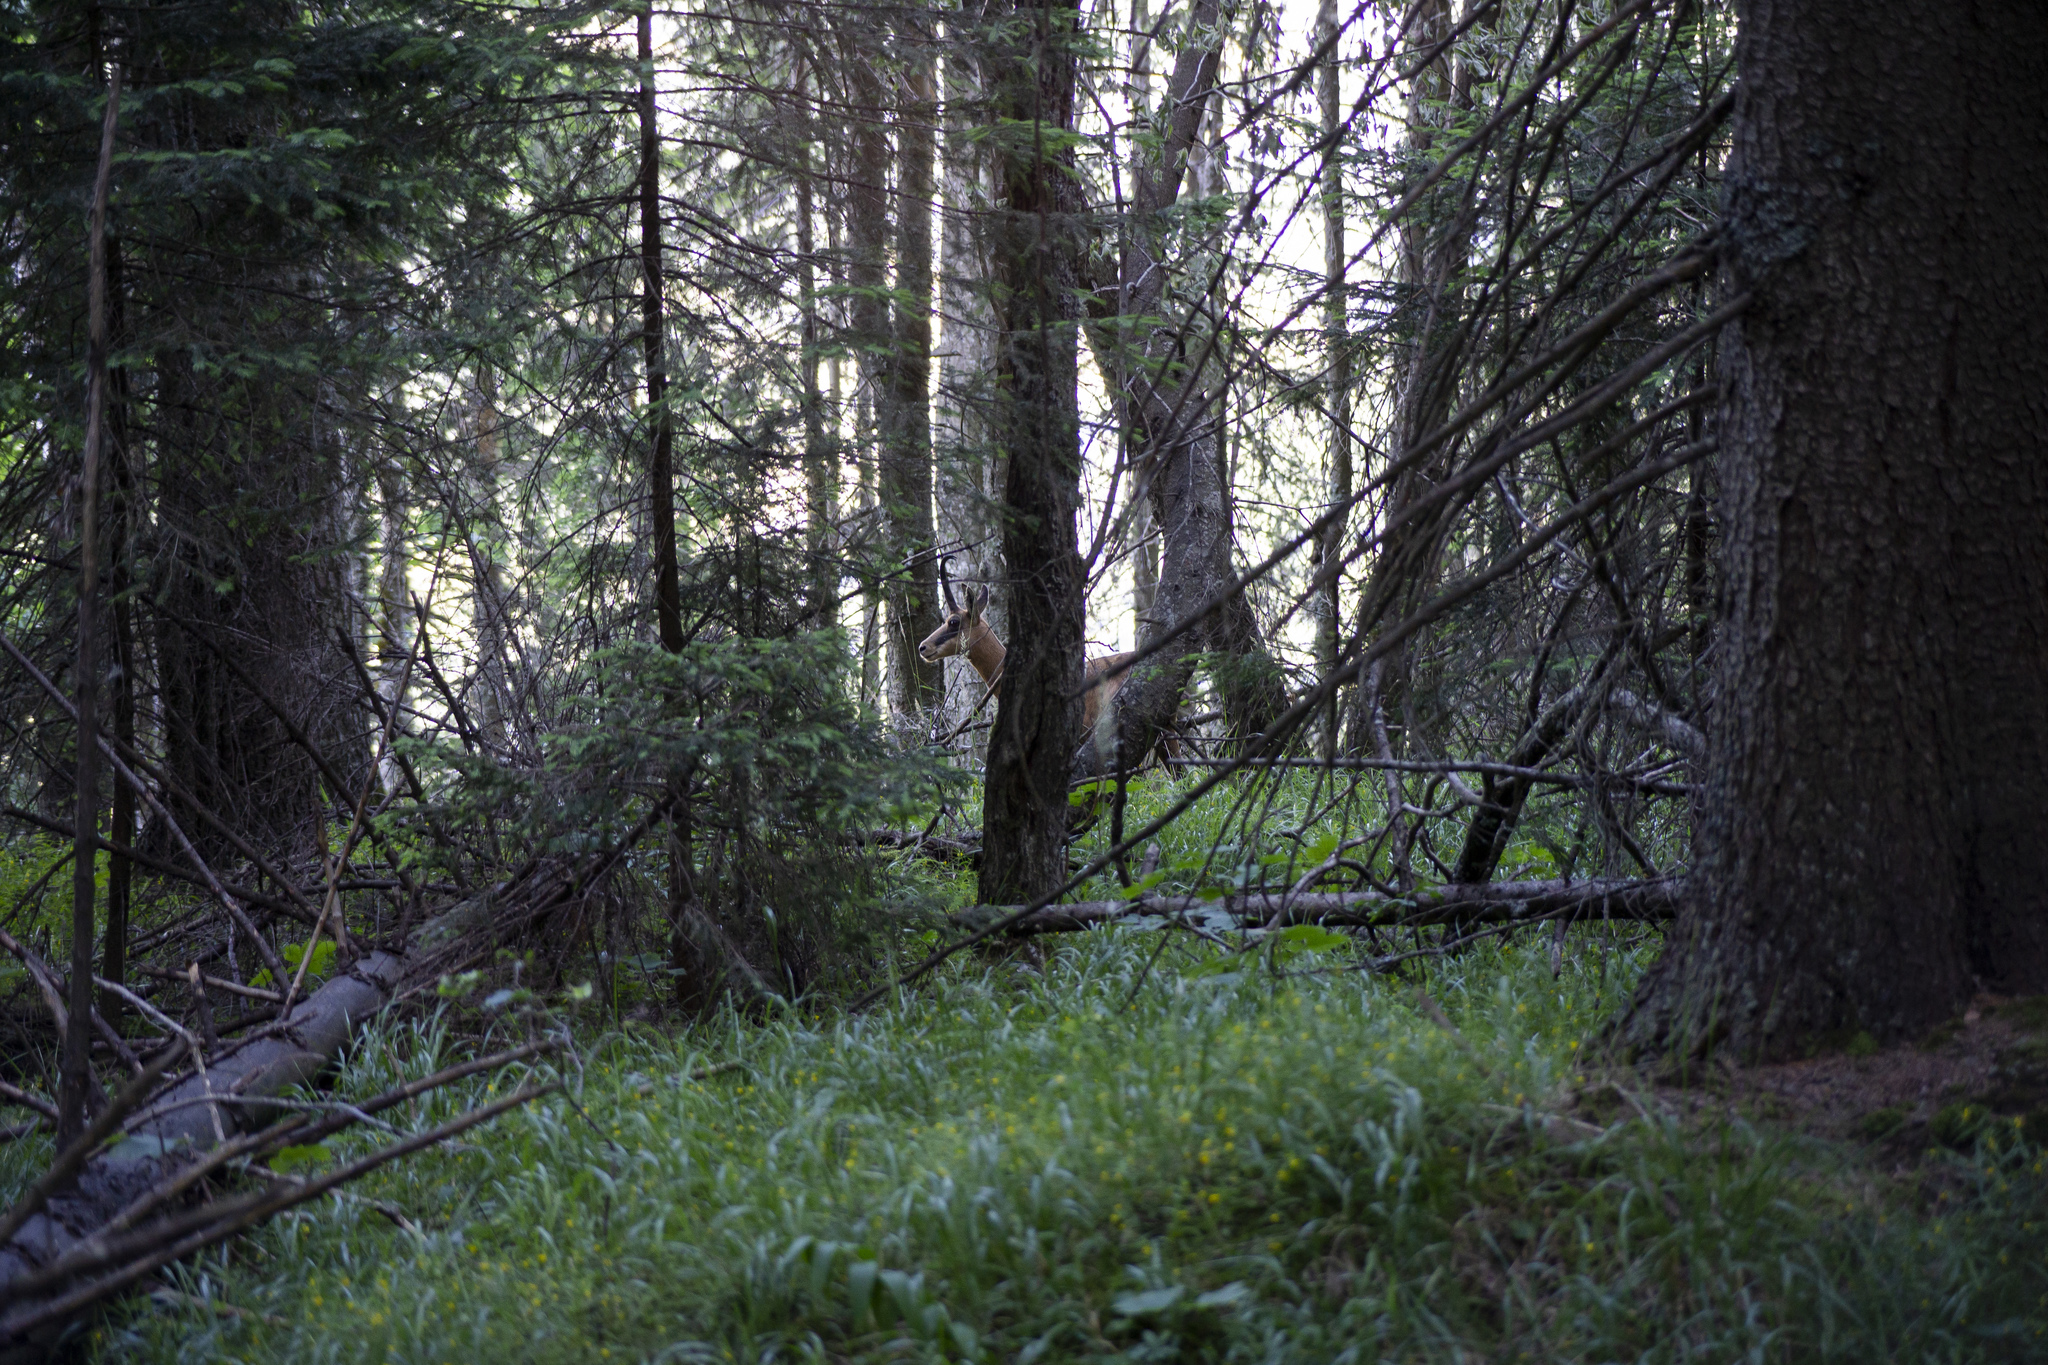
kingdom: Animalia
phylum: Chordata
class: Mammalia
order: Artiodactyla
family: Bovidae
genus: Rupicapra
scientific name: Rupicapra rupicapra
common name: Chamois
